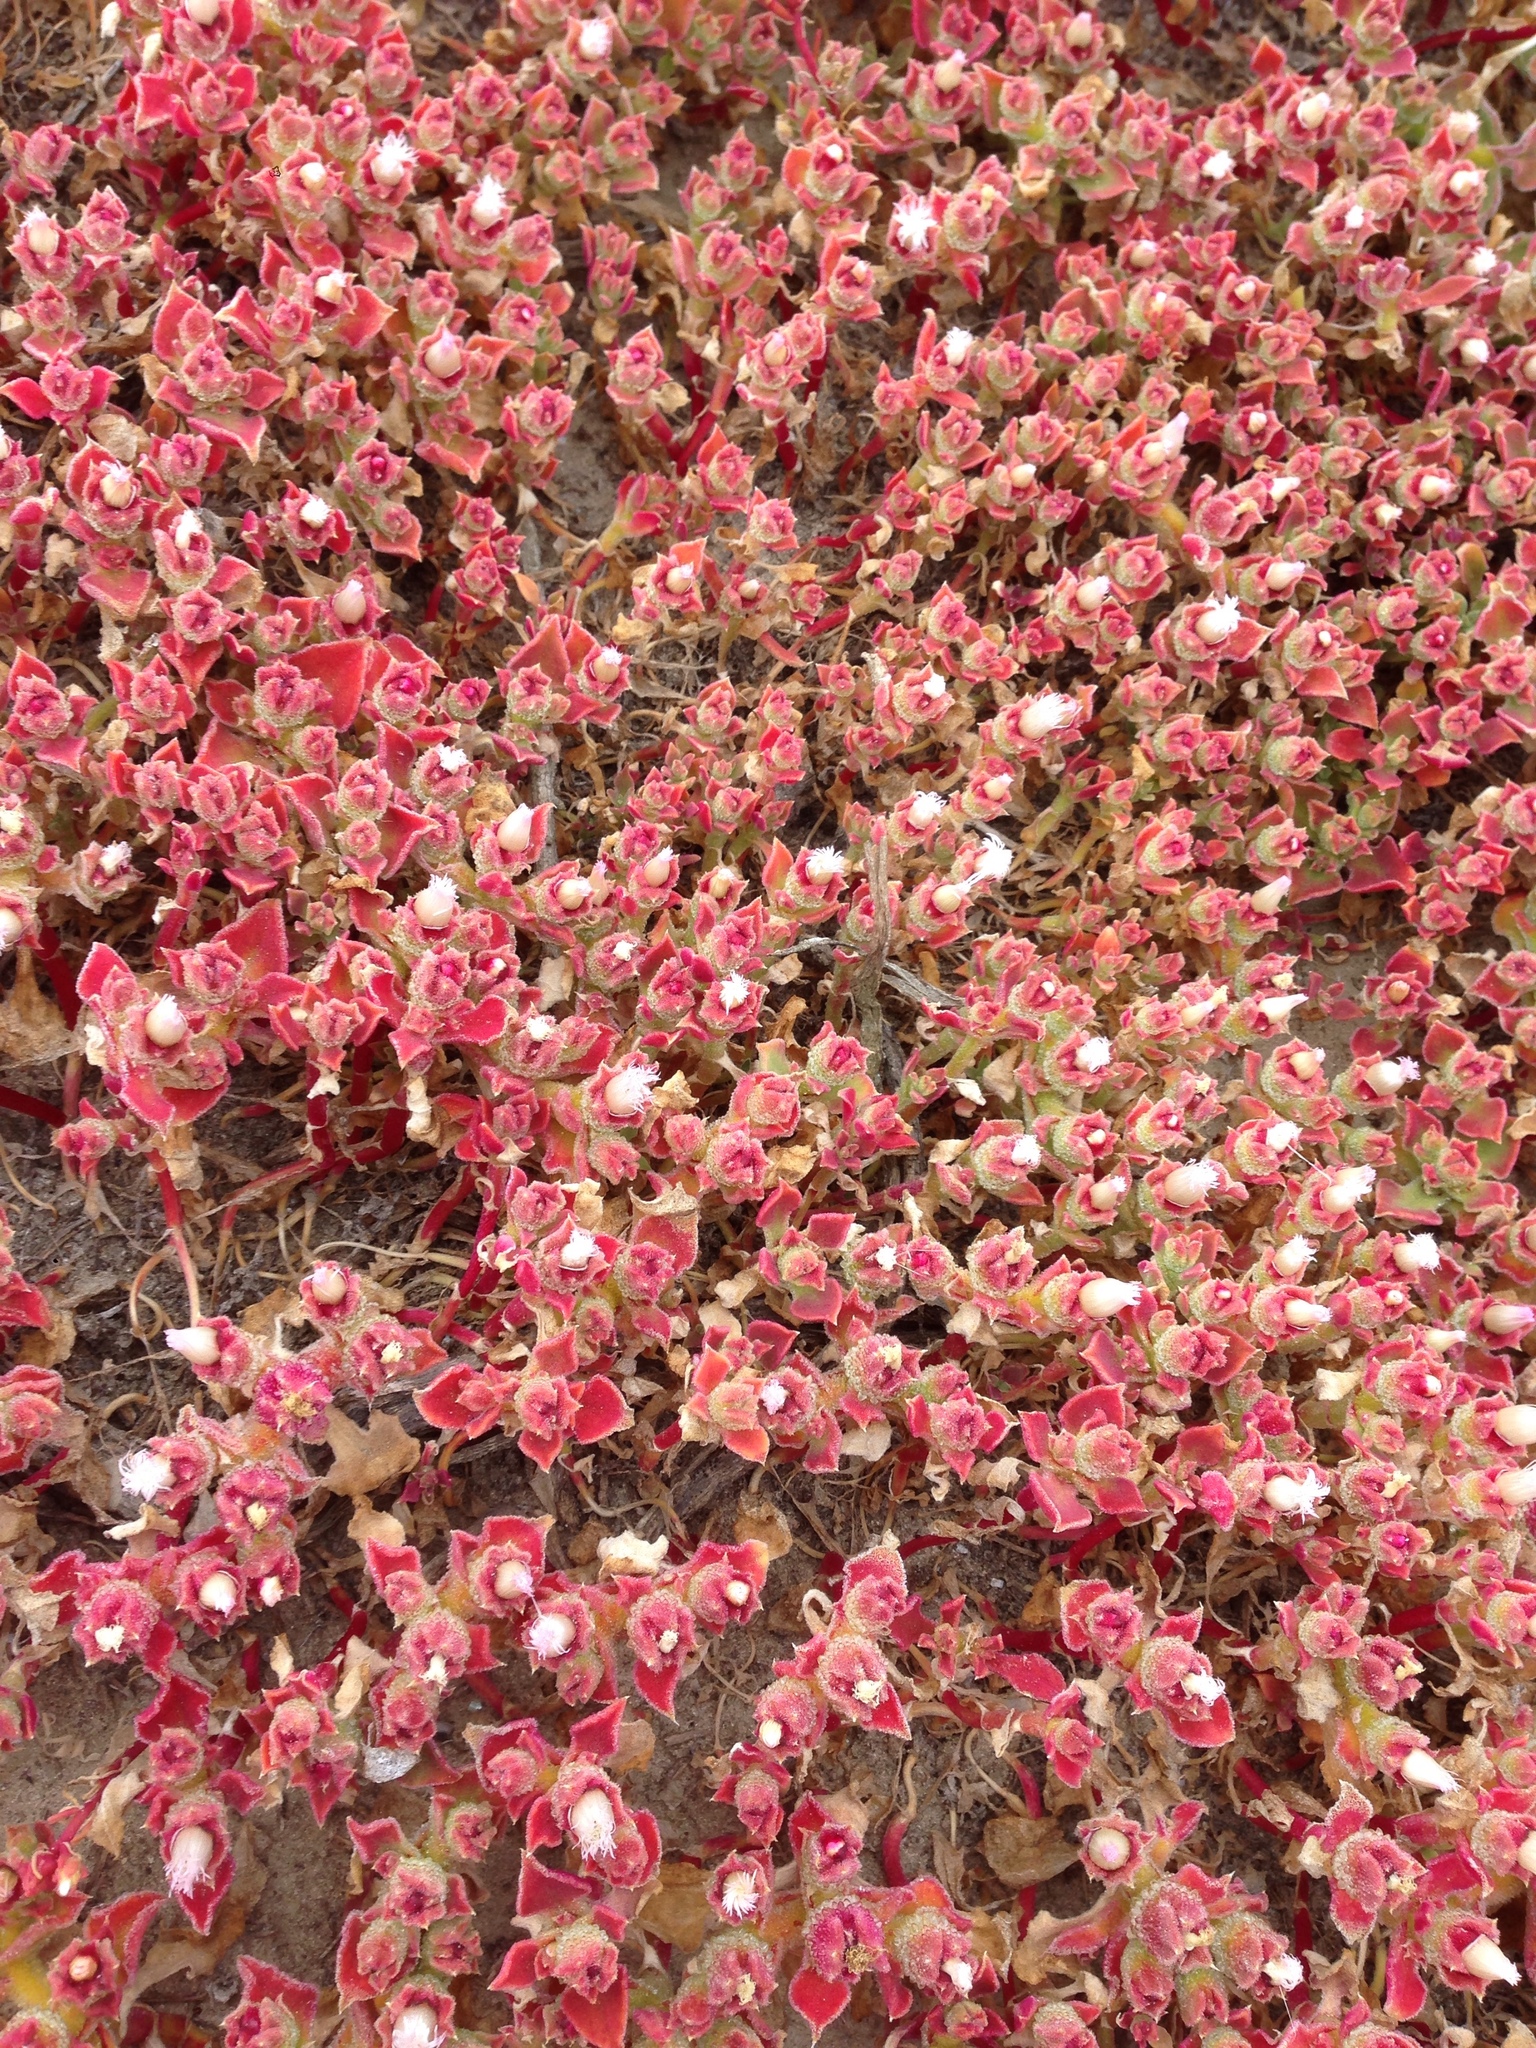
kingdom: Plantae
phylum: Tracheophyta
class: Magnoliopsida
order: Caryophyllales
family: Aizoaceae
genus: Mesembryanthemum
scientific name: Mesembryanthemum crystallinum
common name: Common iceplant
